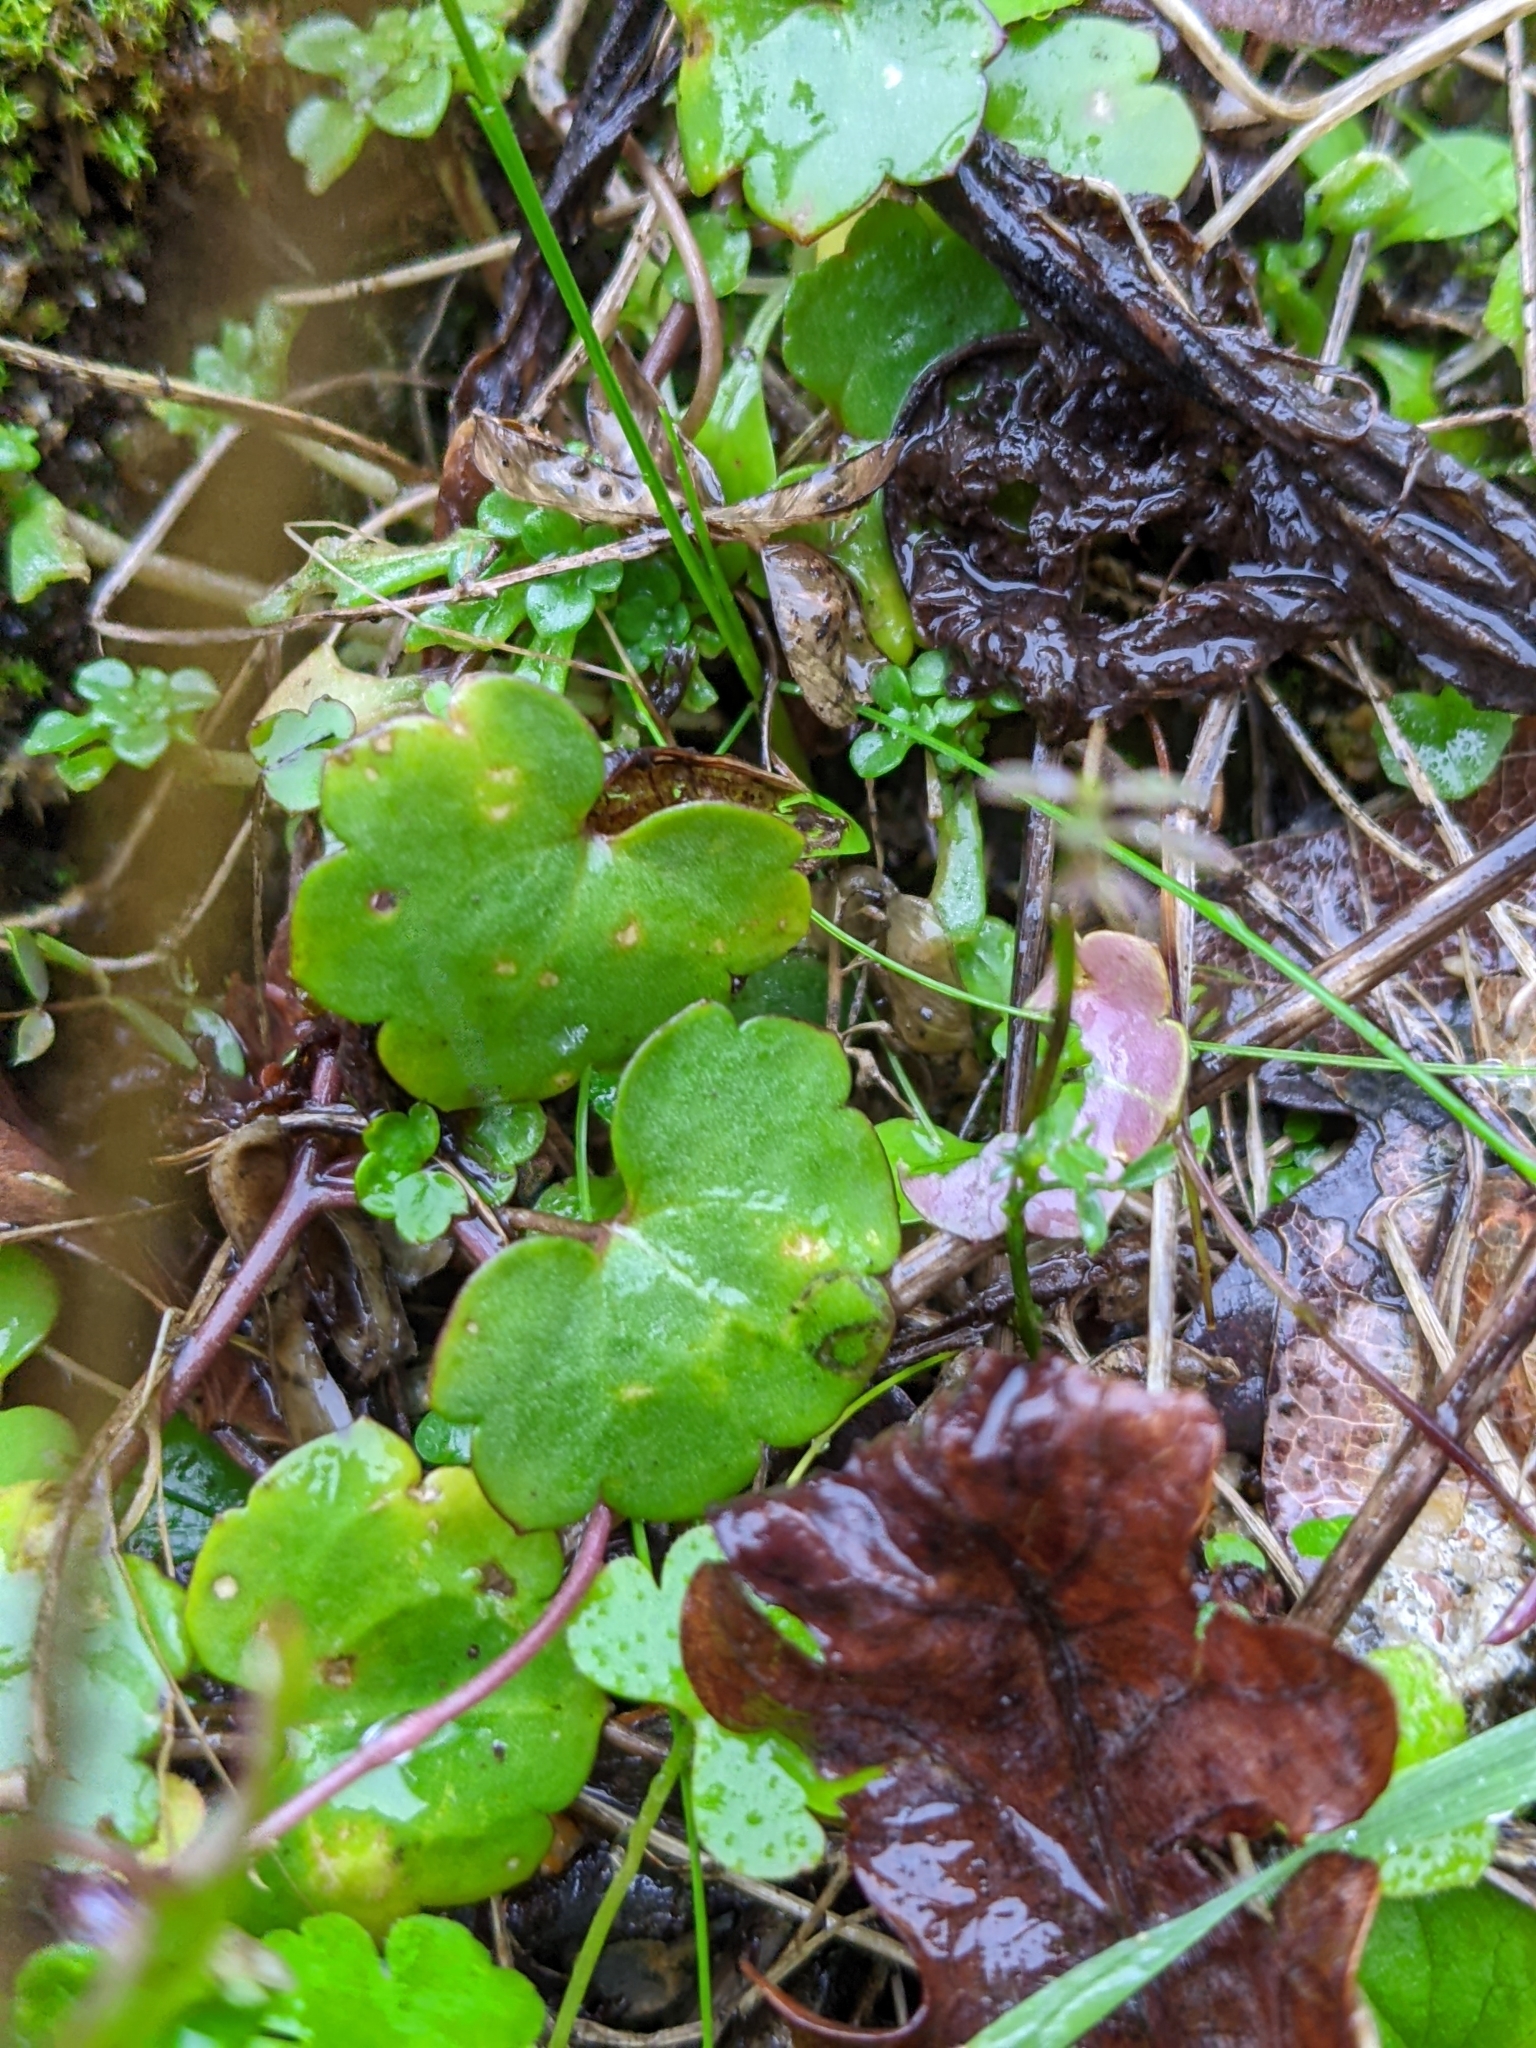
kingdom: Plantae
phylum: Tracheophyta
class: Magnoliopsida
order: Lamiales
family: Plantaginaceae
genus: Cymbalaria
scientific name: Cymbalaria muralis
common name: Ivy-leaved toadflax
